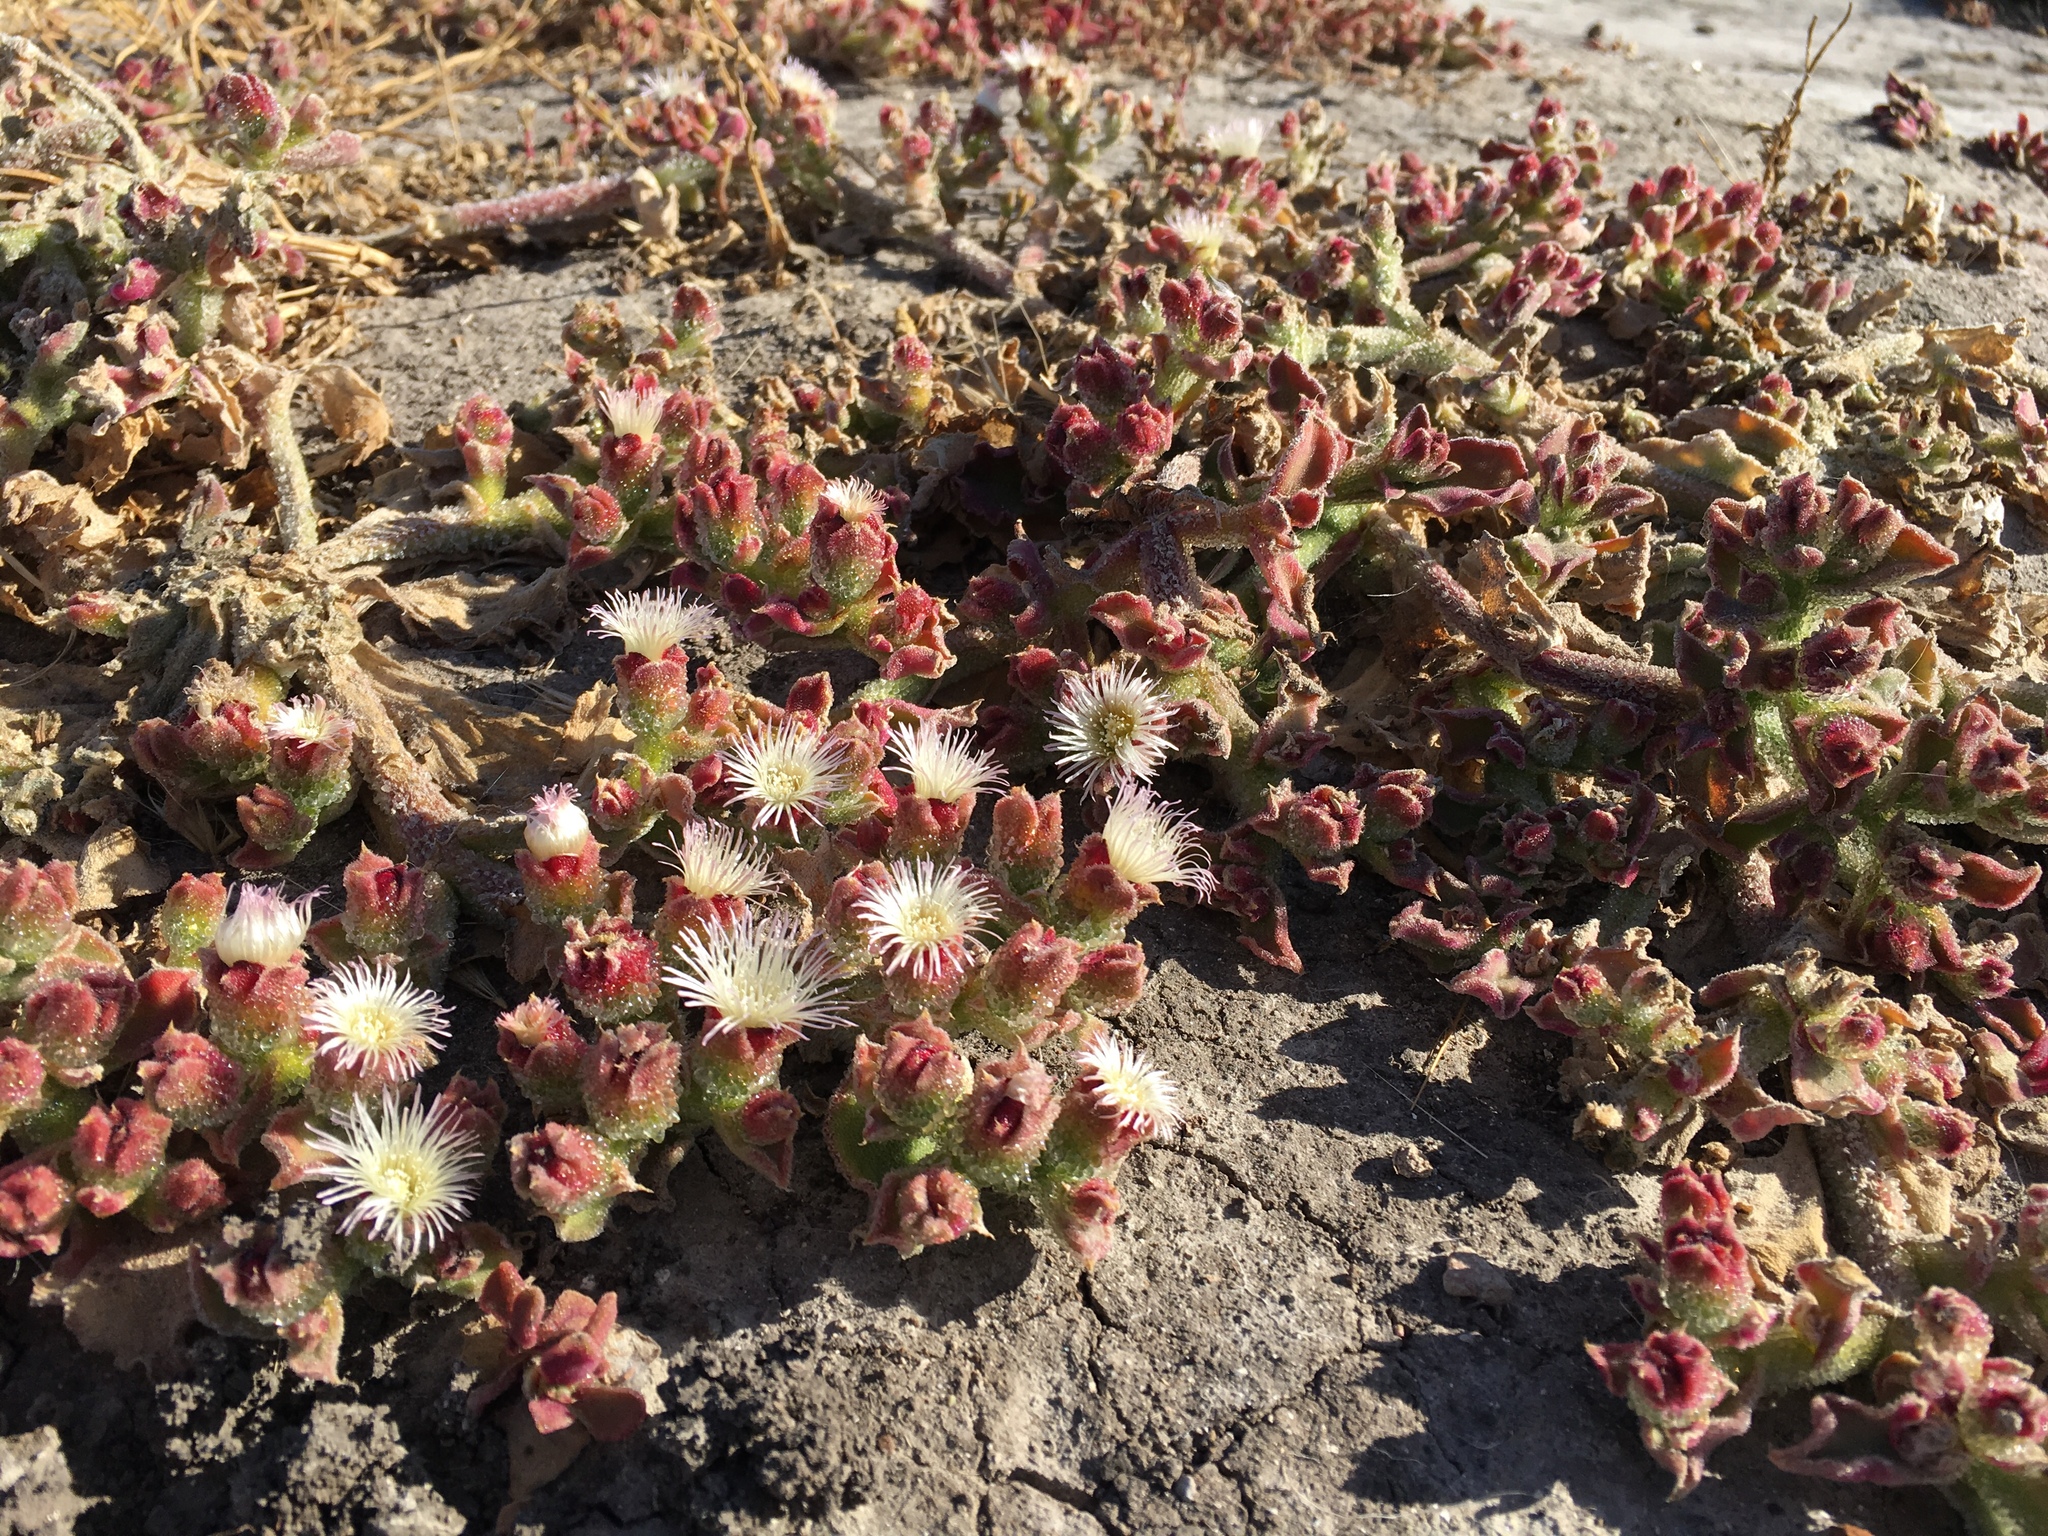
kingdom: Plantae
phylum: Tracheophyta
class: Magnoliopsida
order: Caryophyllales
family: Aizoaceae
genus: Mesembryanthemum
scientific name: Mesembryanthemum crystallinum
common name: Common iceplant
